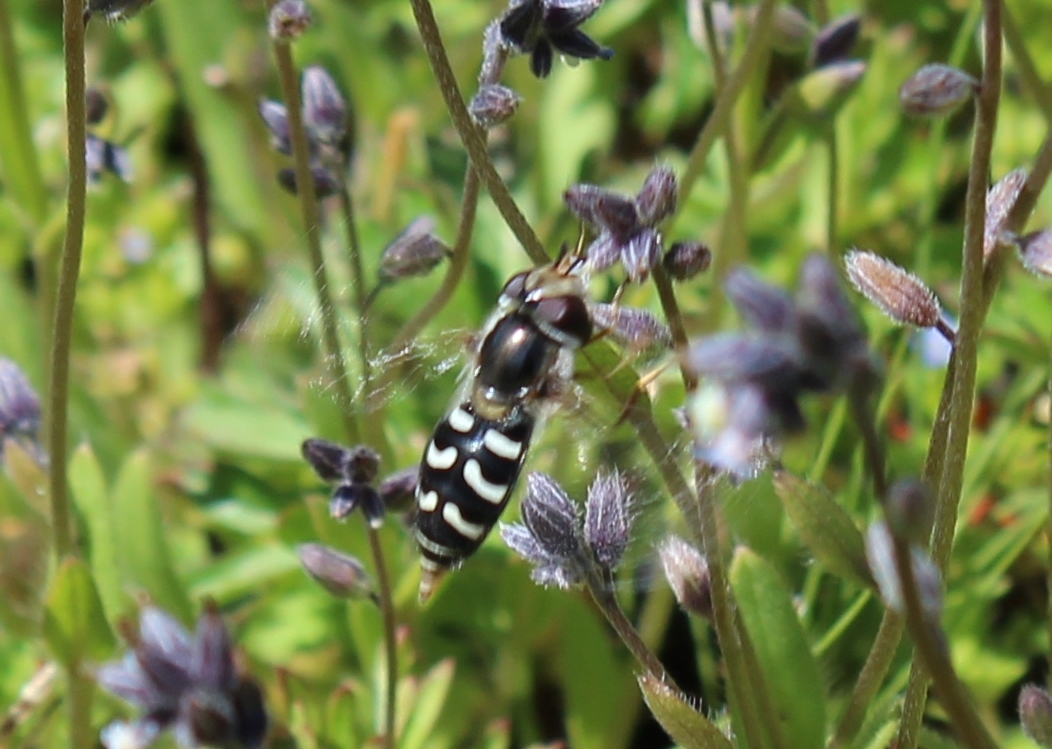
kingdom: Animalia
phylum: Arthropoda
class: Insecta
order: Diptera
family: Syrphidae
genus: Scaeva
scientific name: Scaeva affinis
